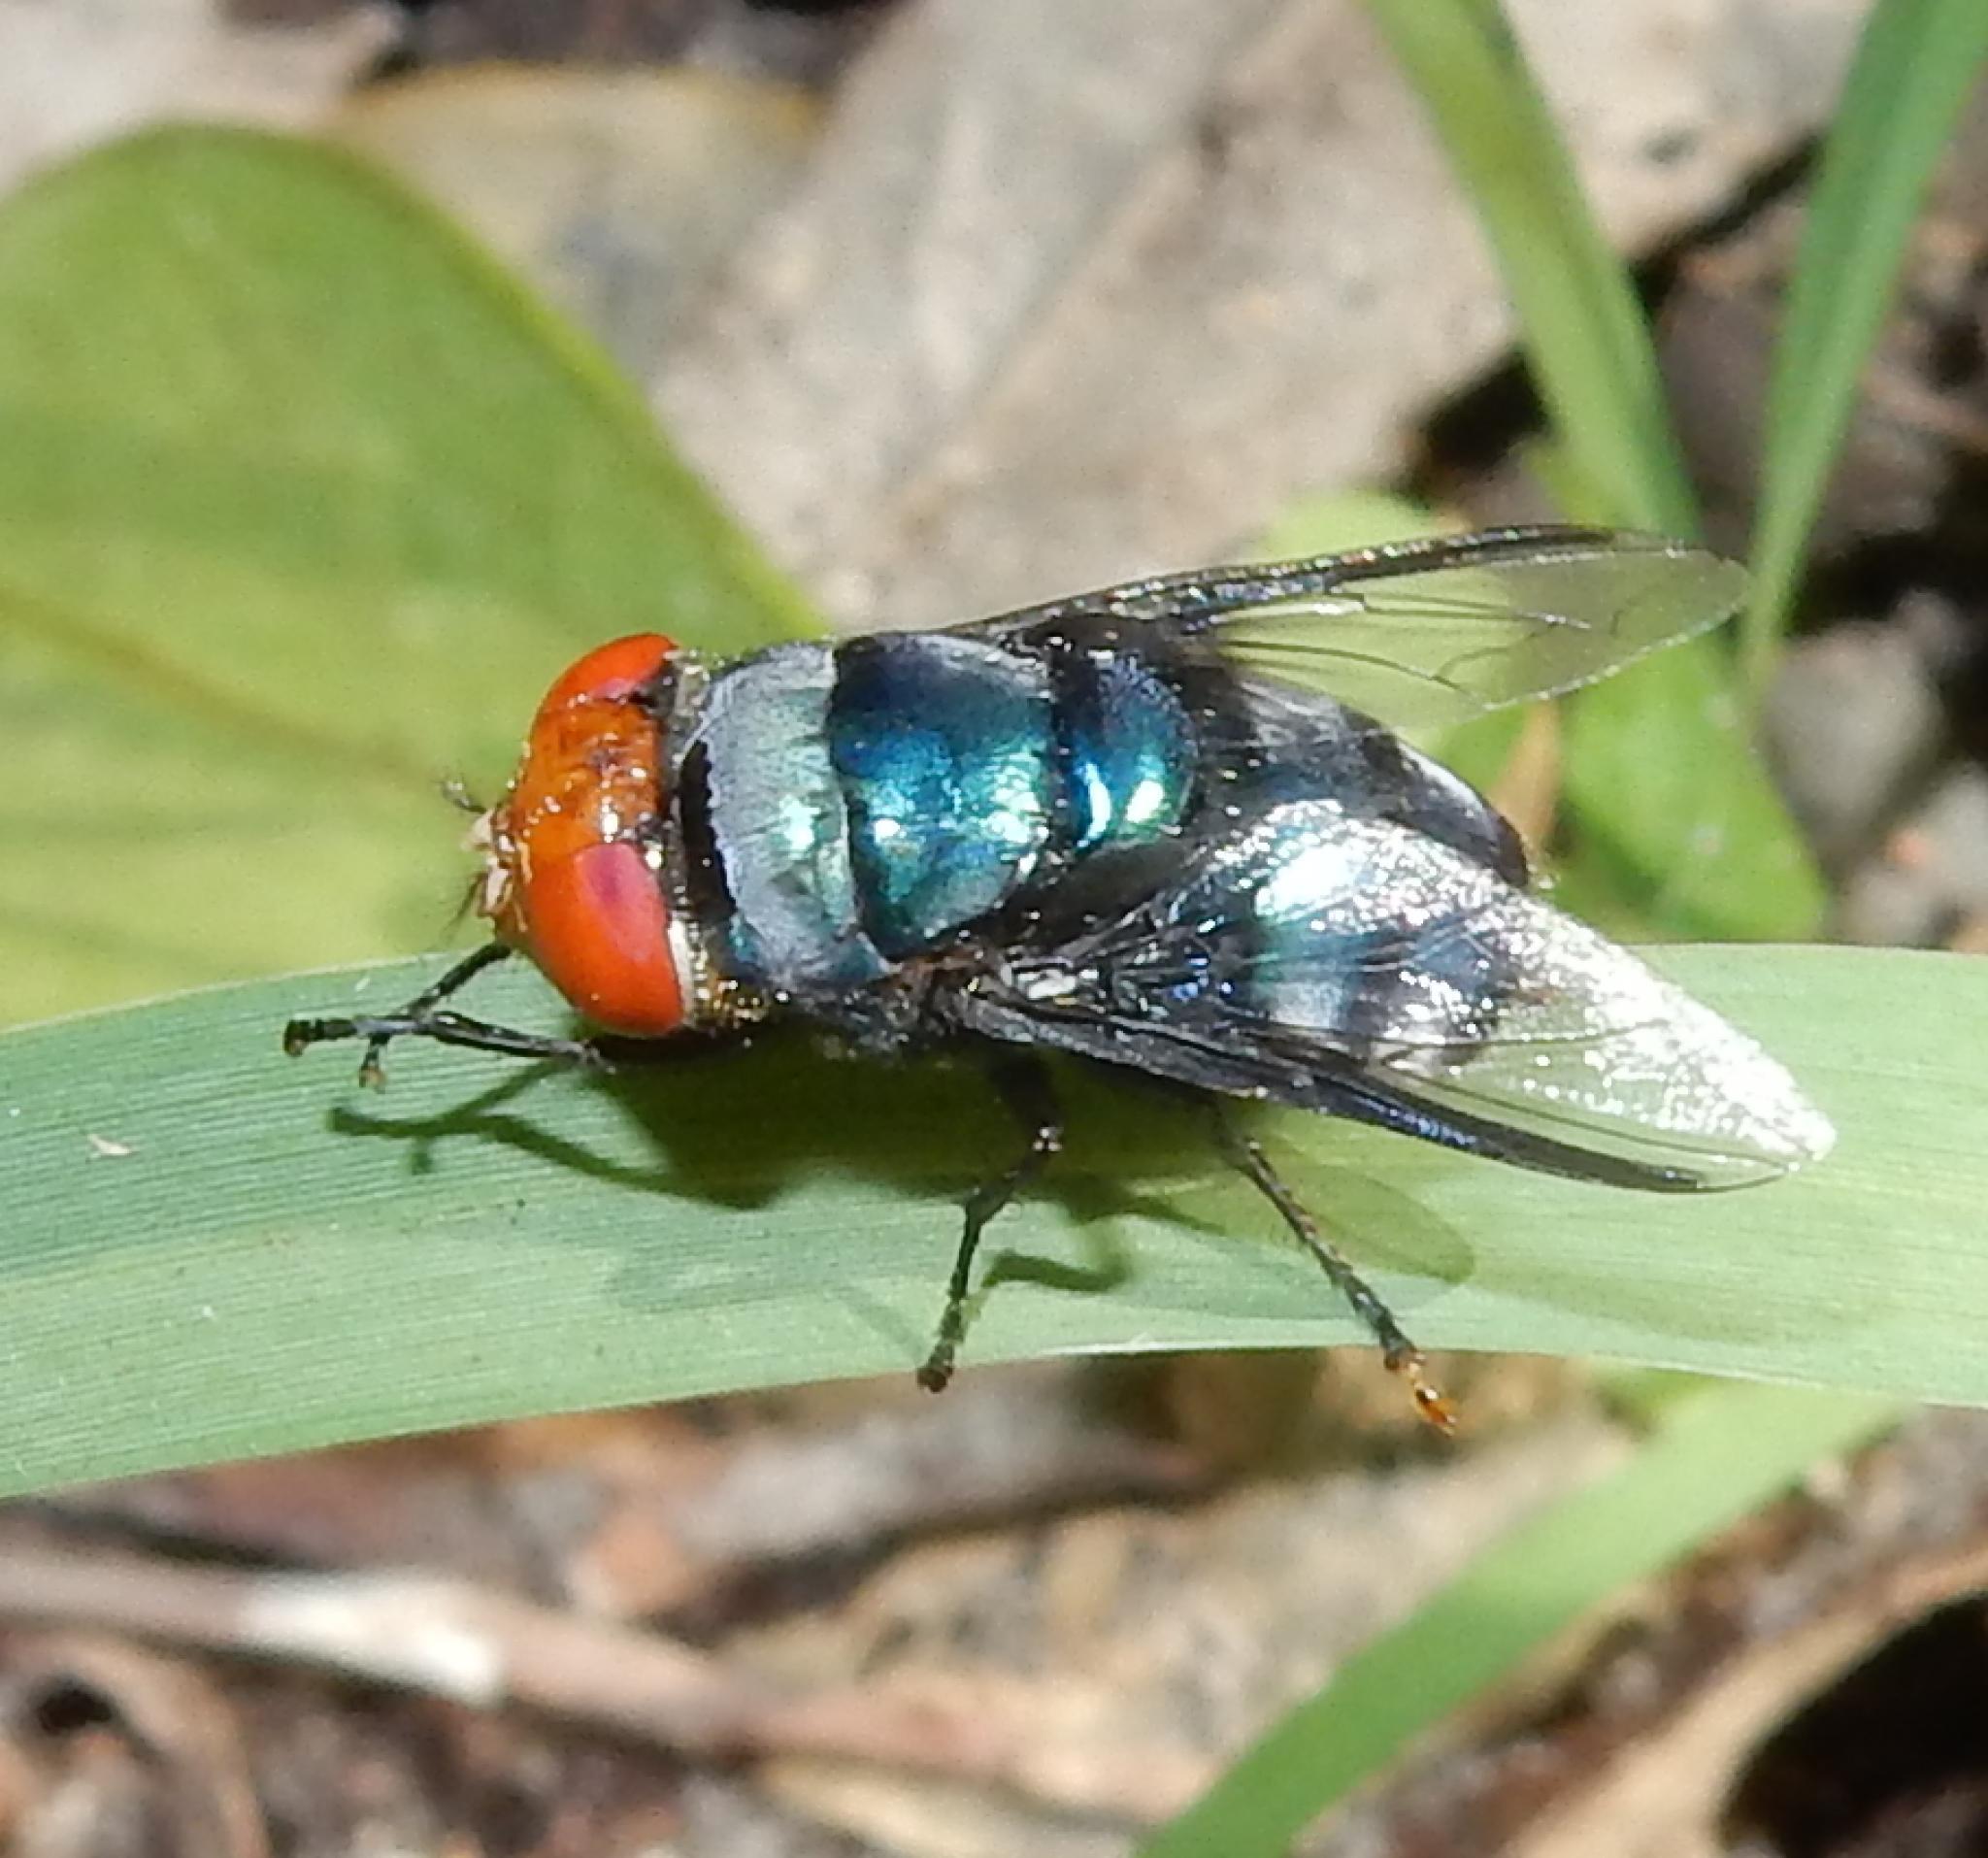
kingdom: Animalia
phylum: Arthropoda
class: Insecta
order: Diptera
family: Calliphoridae
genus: Chrysomya
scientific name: Chrysomya marginalis
